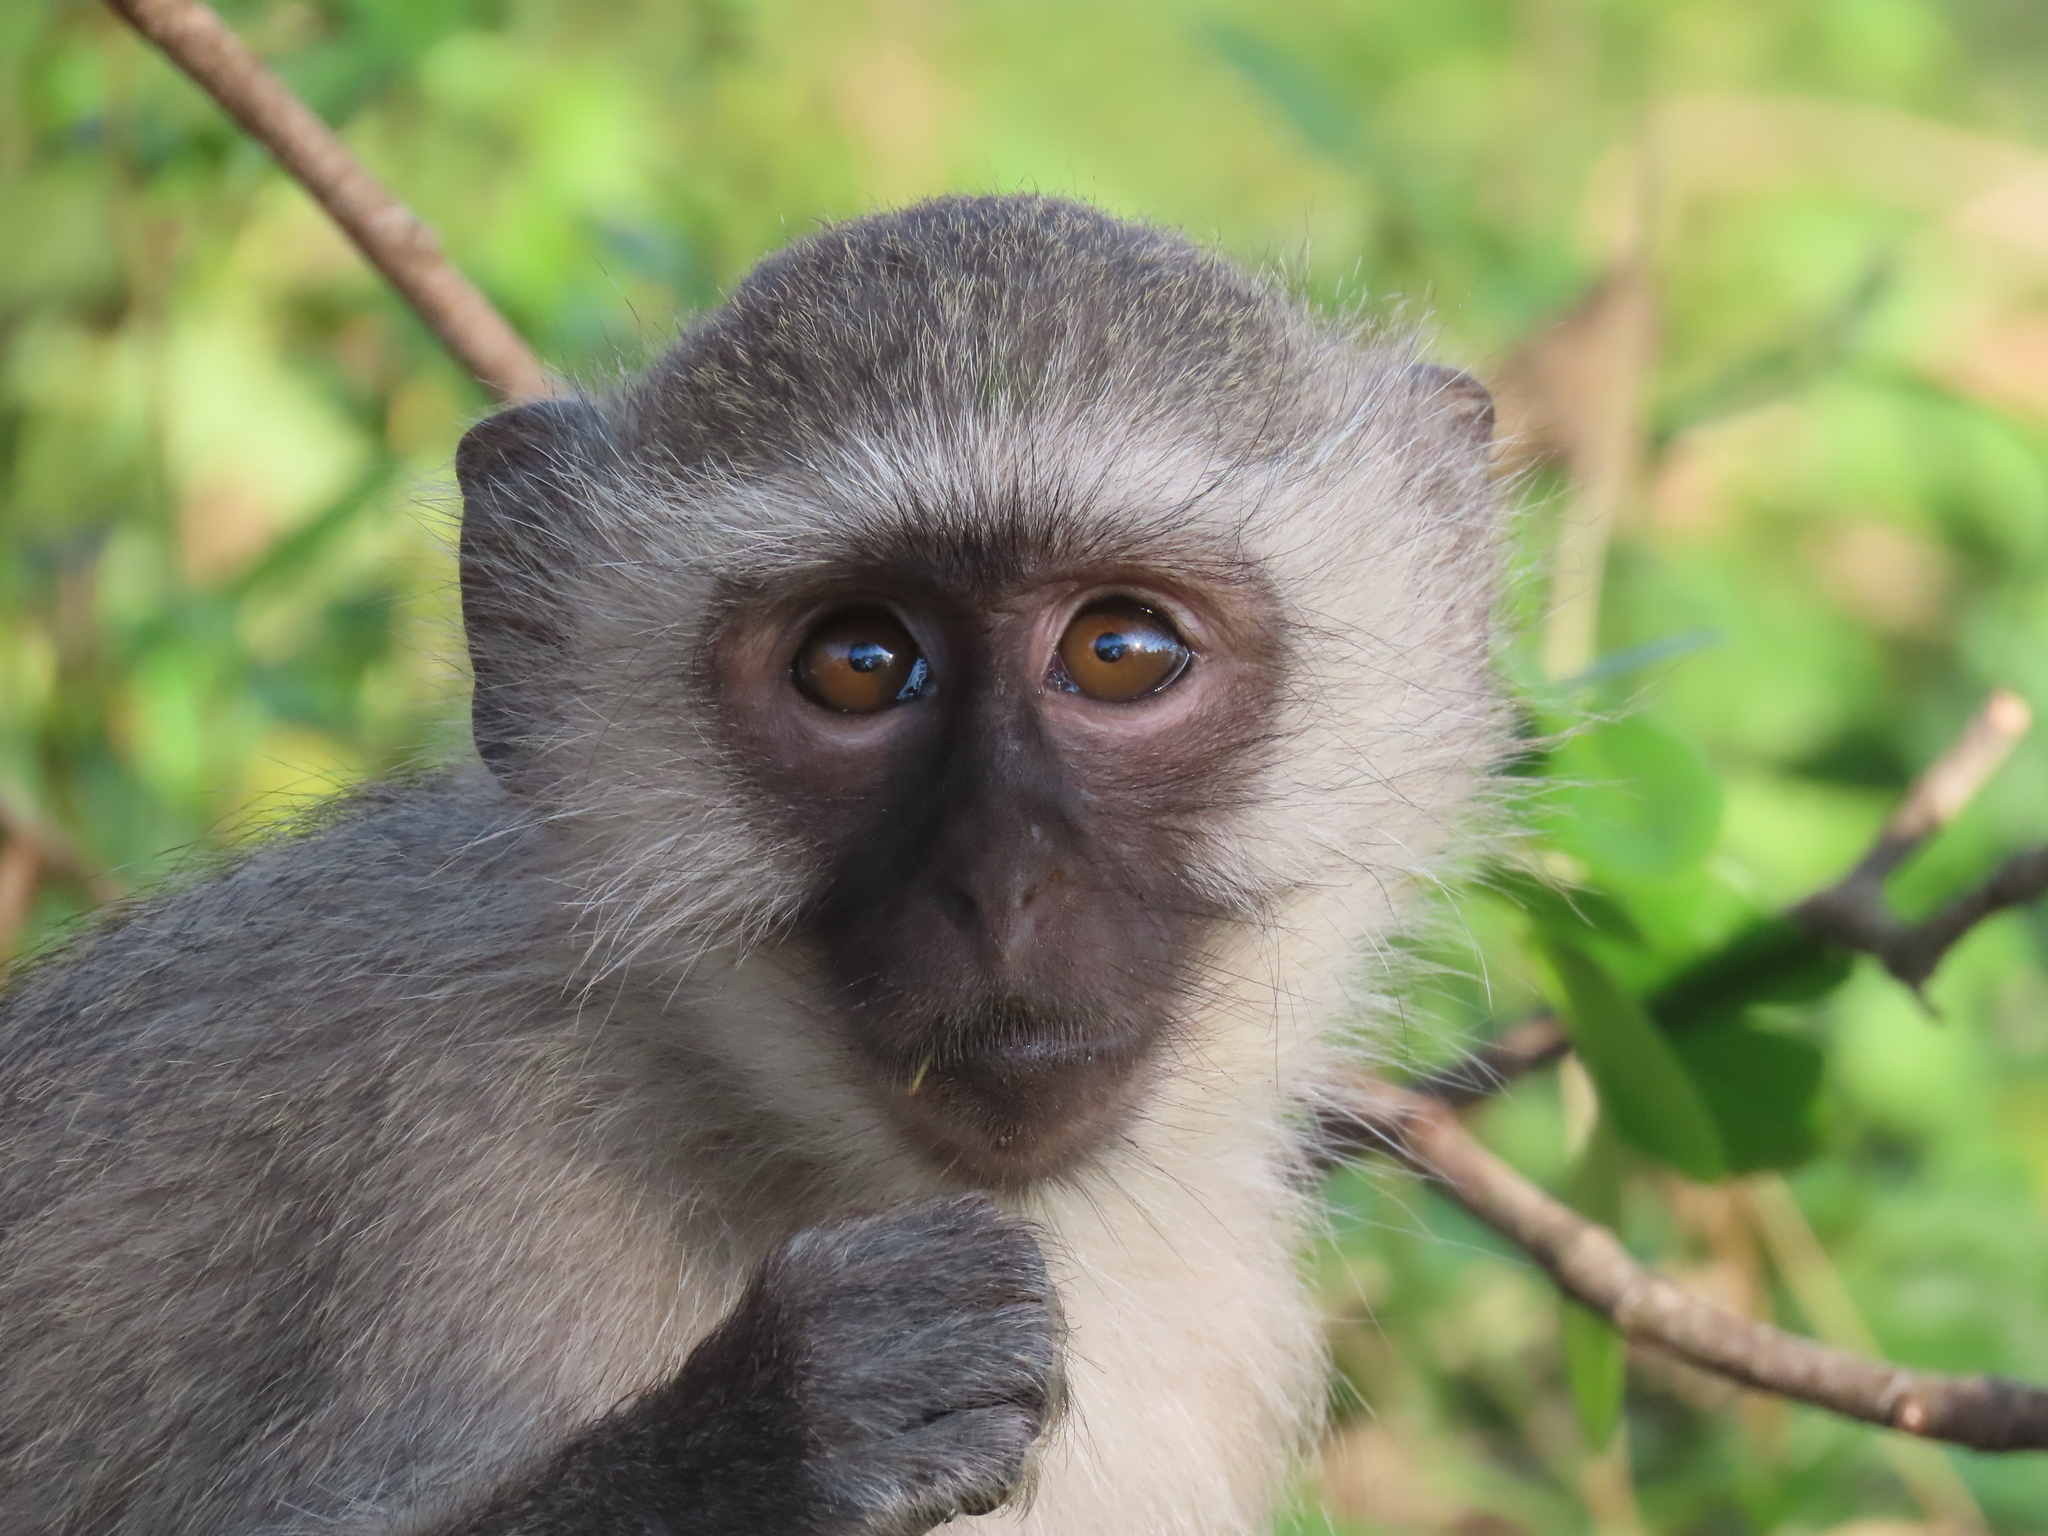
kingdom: Animalia
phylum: Chordata
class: Mammalia
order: Primates
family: Cercopithecidae
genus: Chlorocebus
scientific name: Chlorocebus pygerythrus
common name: Vervet monkey
